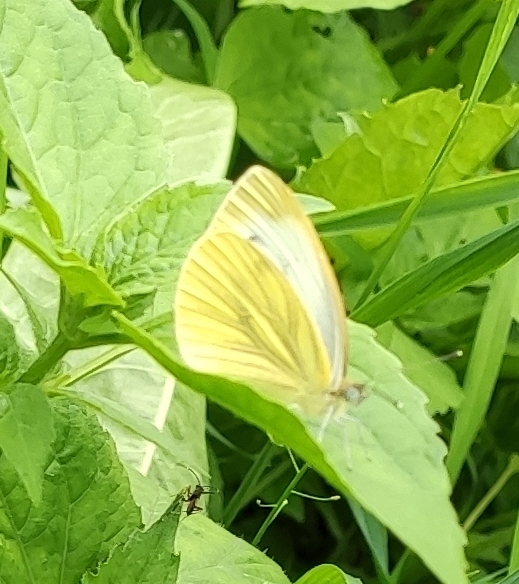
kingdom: Animalia
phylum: Arthropoda
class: Insecta
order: Lepidoptera
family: Pieridae
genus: Pieris
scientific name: Pieris napi
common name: Green-veined white
